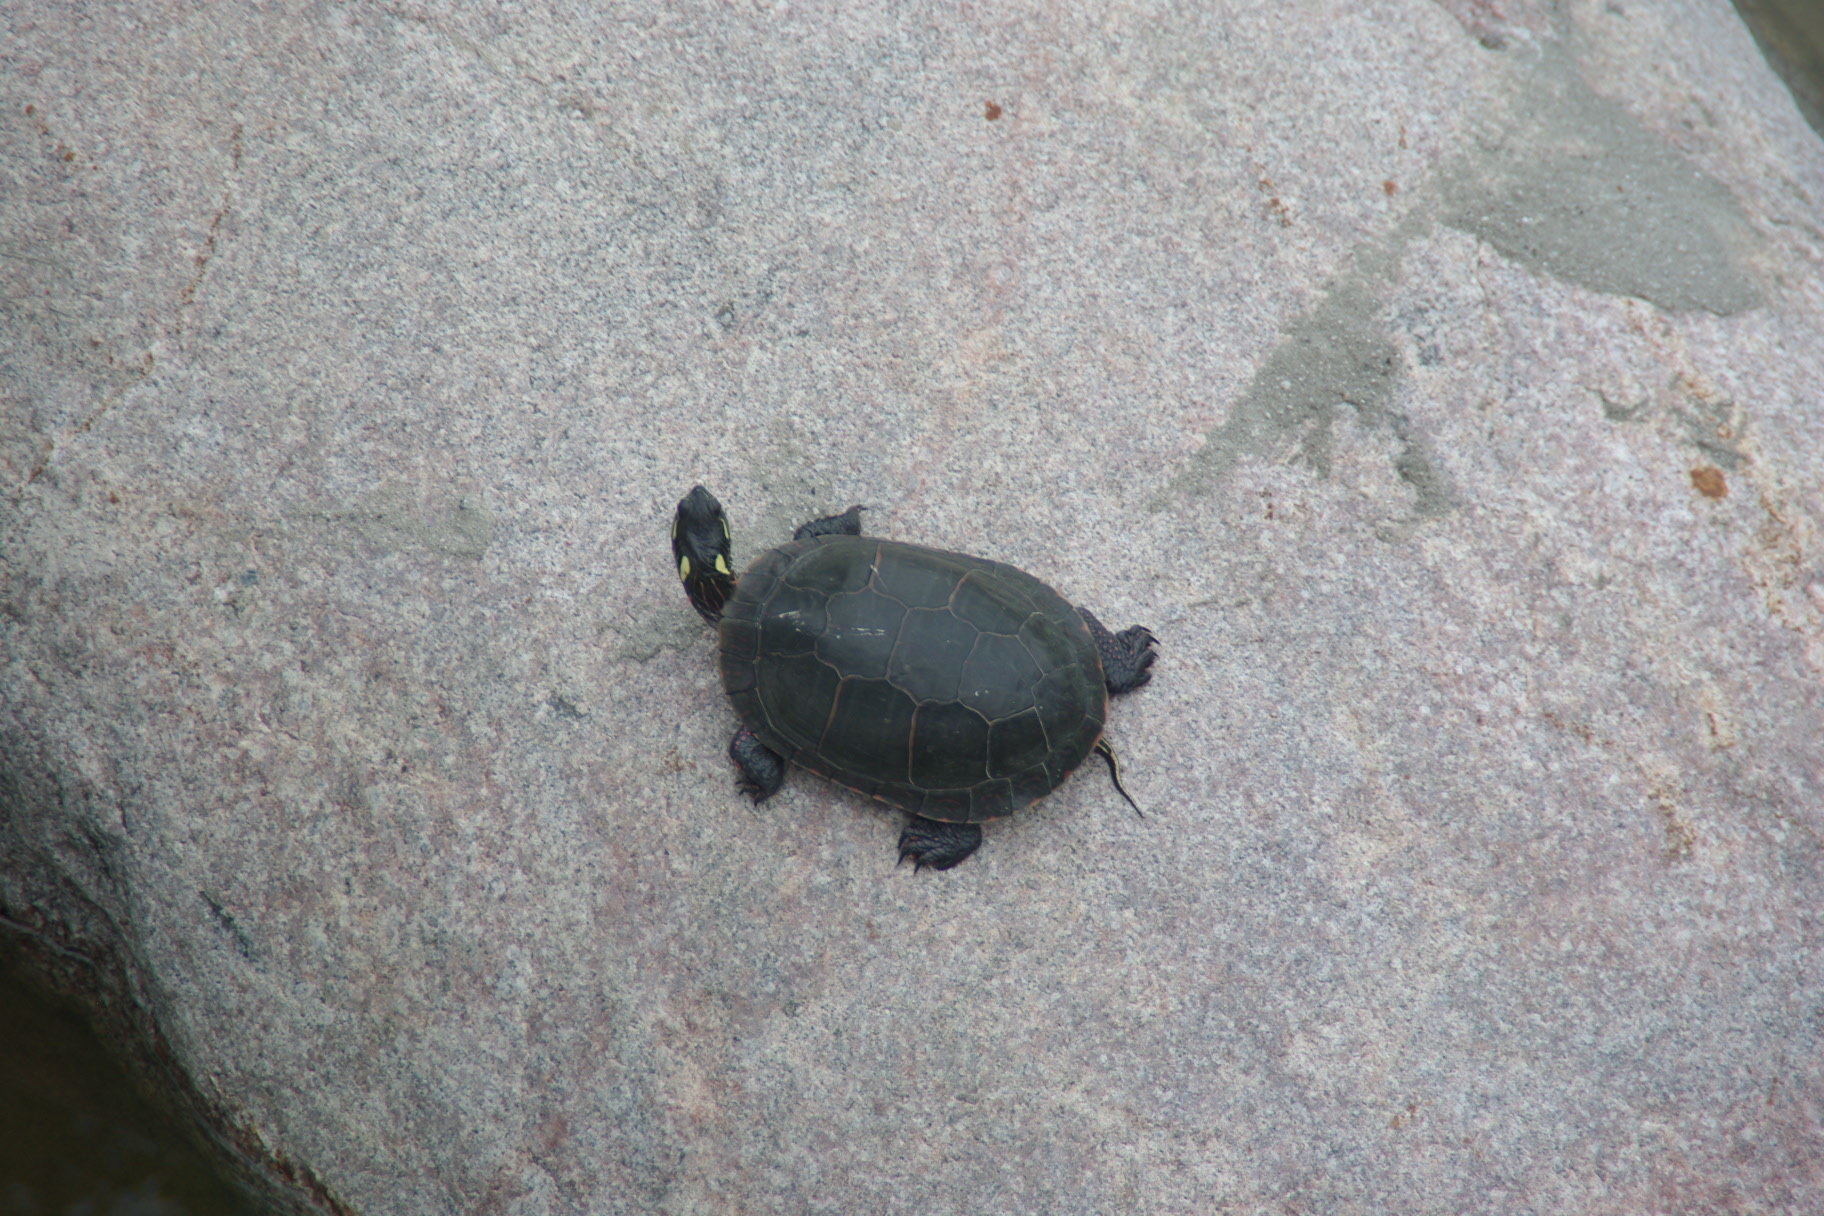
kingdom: Animalia
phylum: Chordata
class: Testudines
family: Emydidae
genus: Chrysemys
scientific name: Chrysemys picta
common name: Painted turtle
